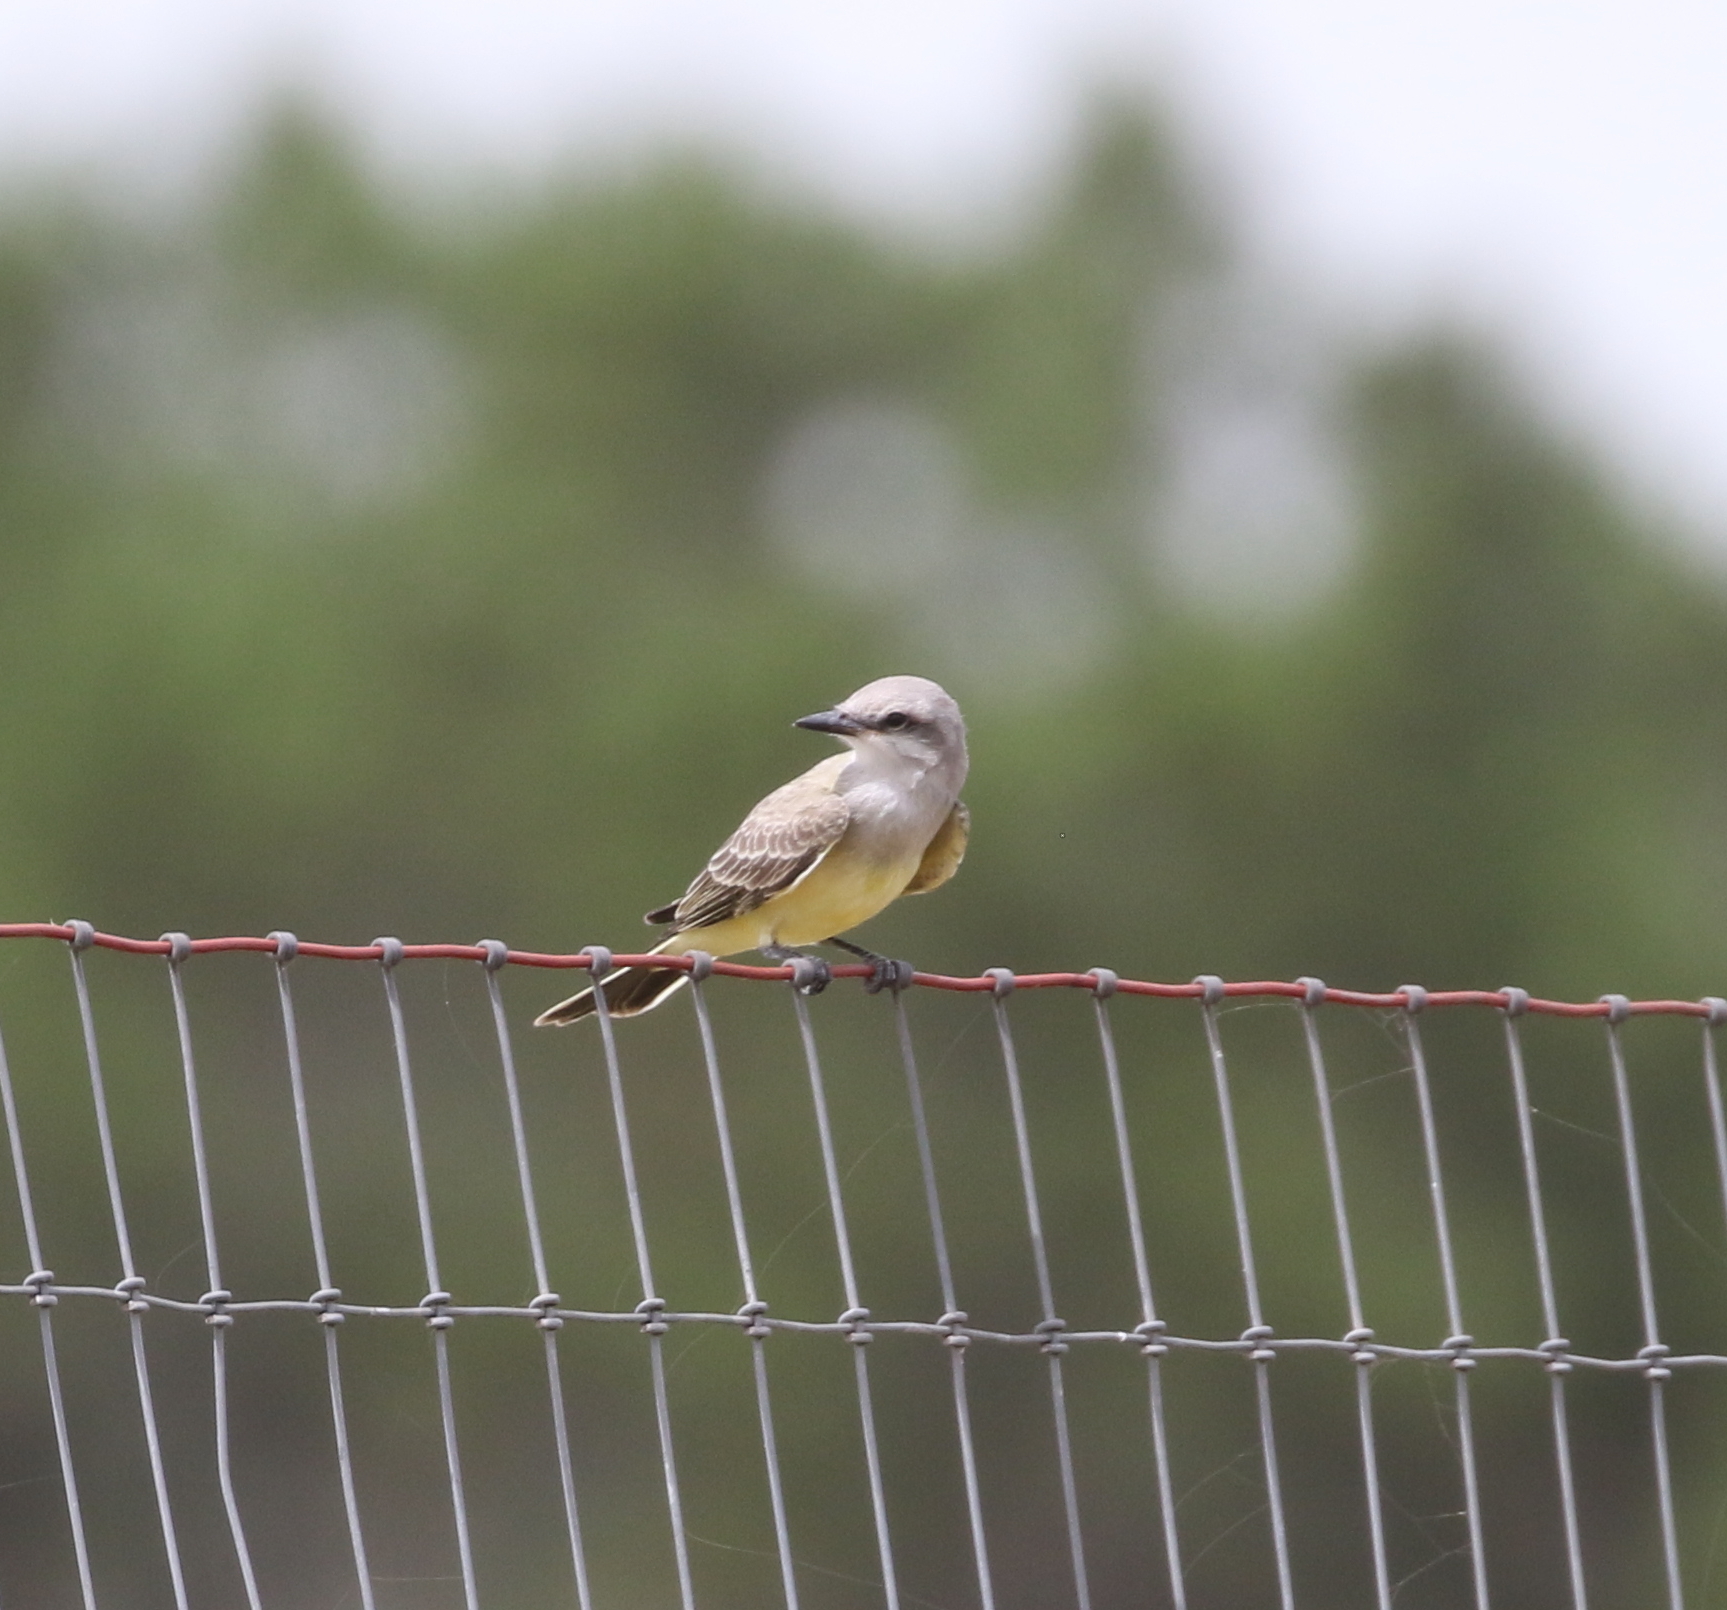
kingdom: Animalia
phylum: Chordata
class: Aves
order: Passeriformes
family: Tyrannidae
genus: Tyrannus
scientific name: Tyrannus verticalis
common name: Western kingbird
